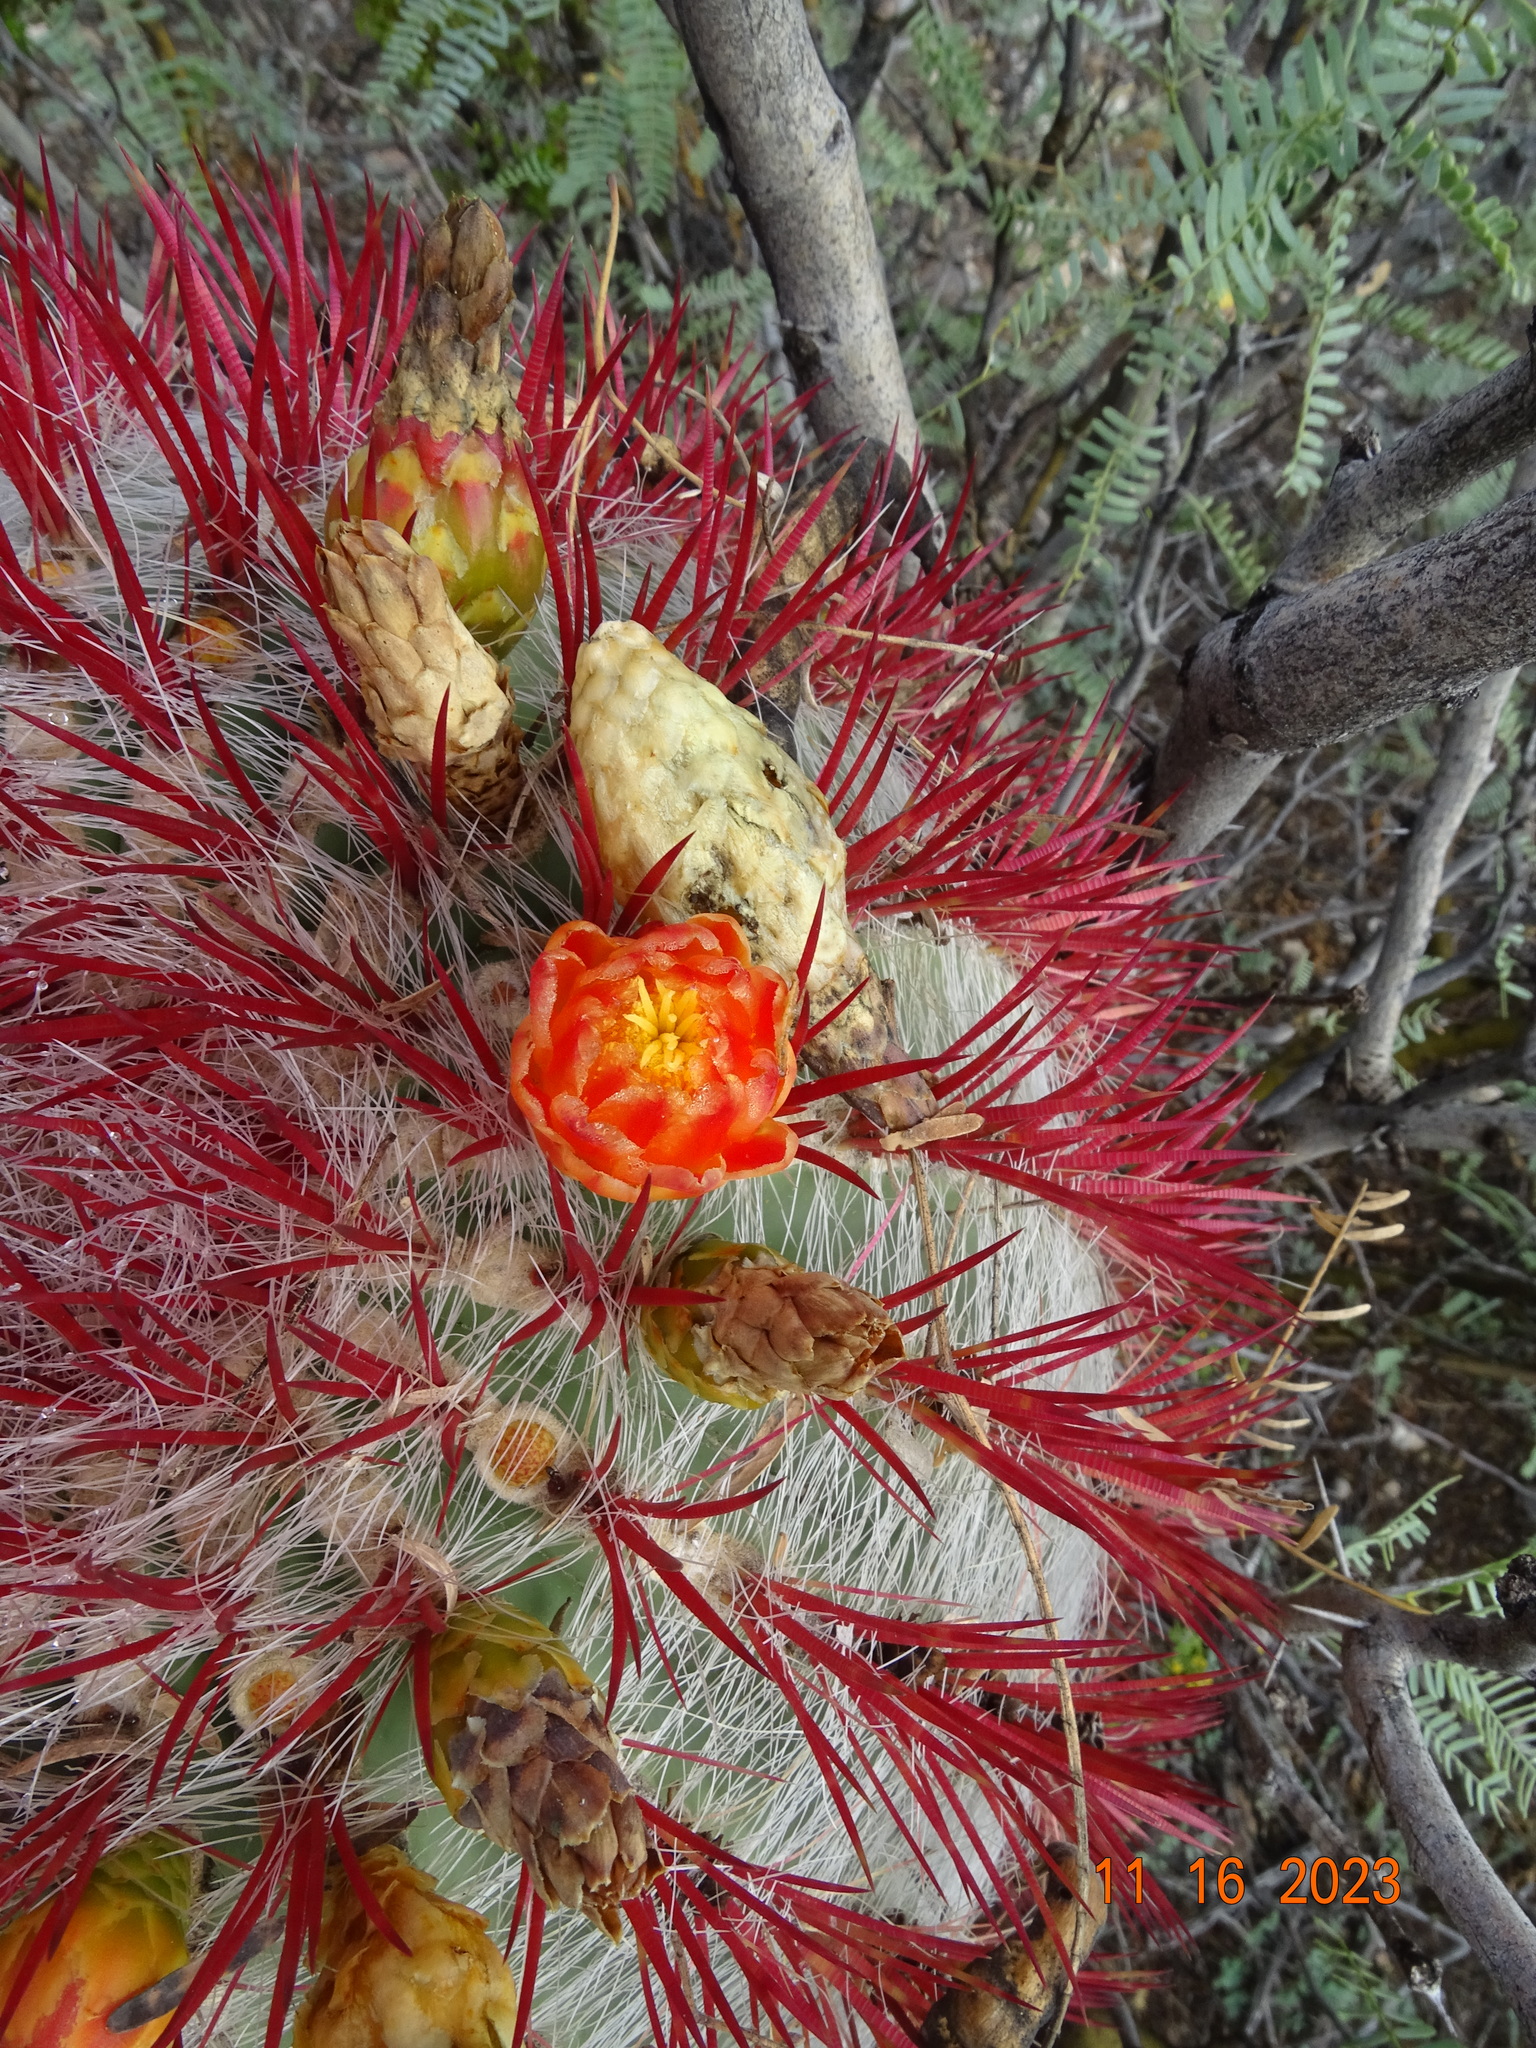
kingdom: Plantae
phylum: Tracheophyta
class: Magnoliopsida
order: Caryophyllales
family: Cactaceae
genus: Ferocactus
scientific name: Ferocactus pilosus
